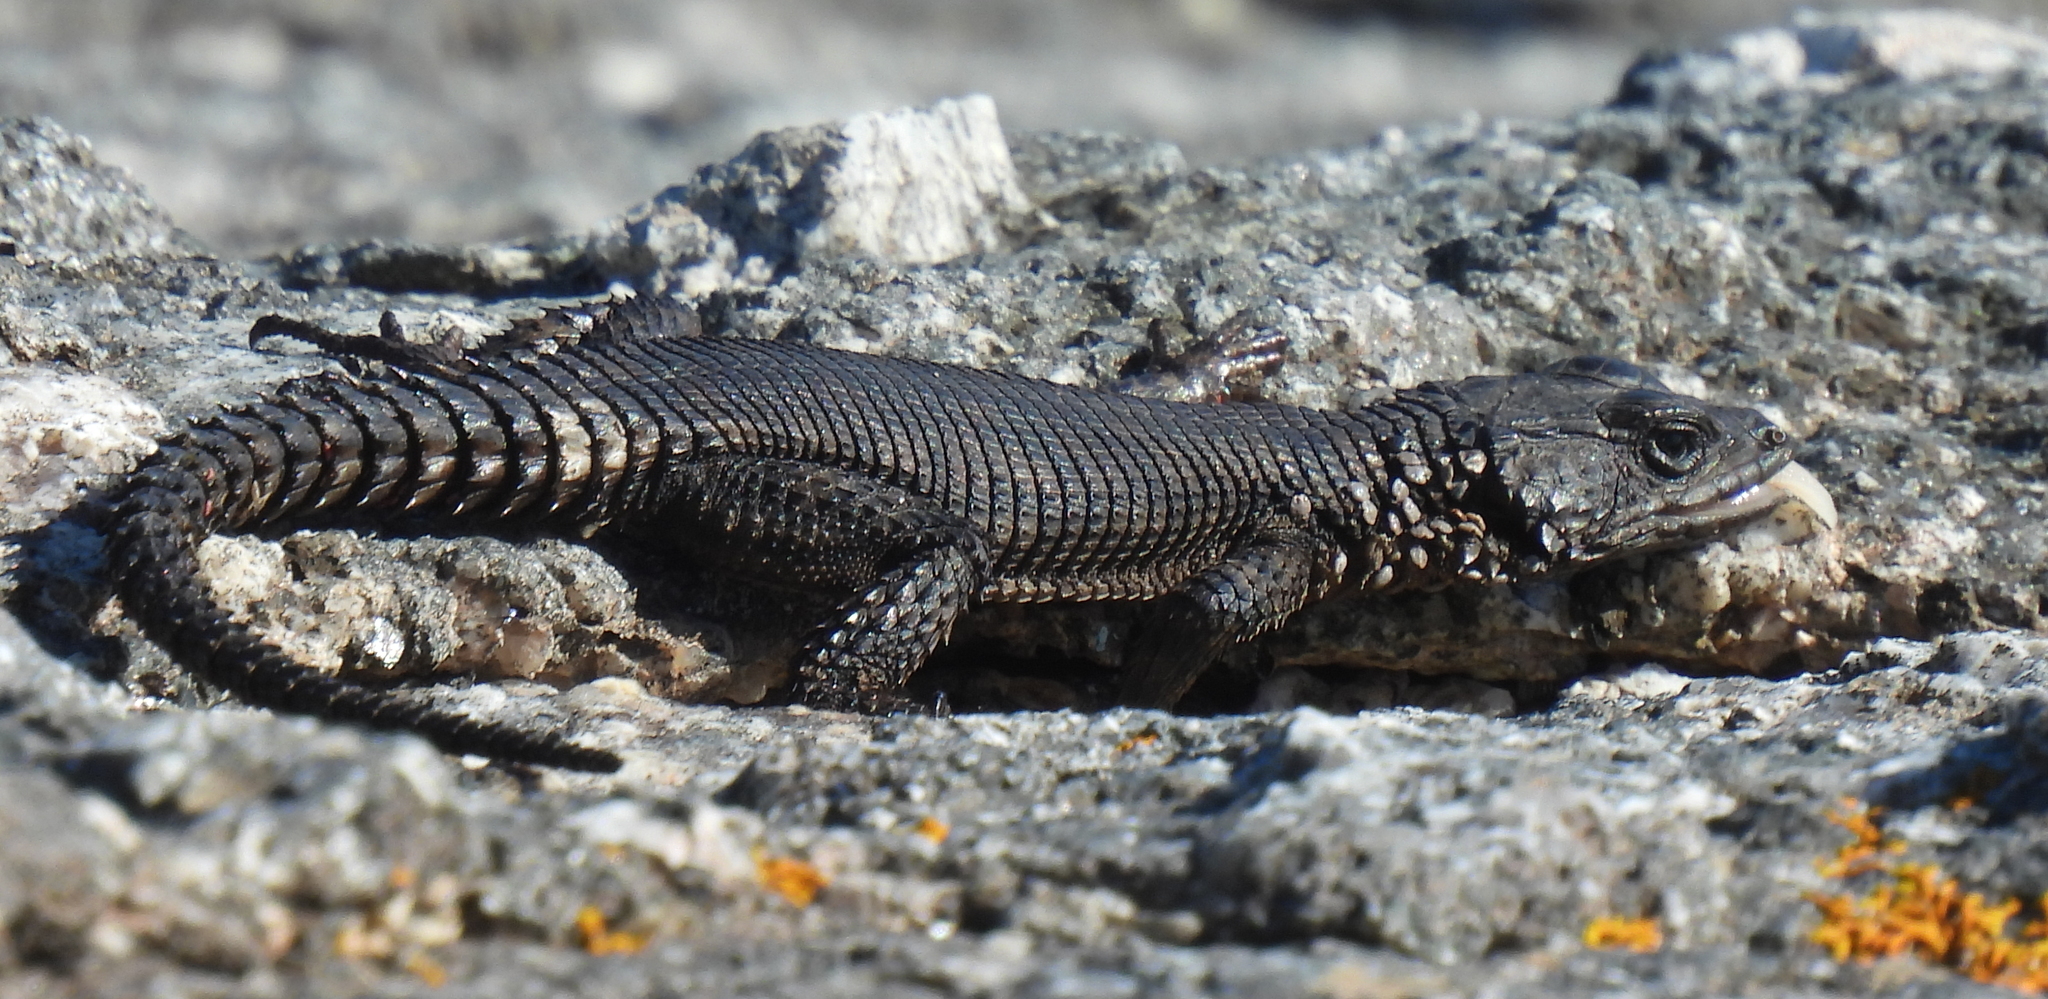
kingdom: Animalia
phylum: Chordata
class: Squamata
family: Cordylidae
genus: Karusasaurus
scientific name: Karusasaurus polyzonus
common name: Karoo girdled lizard
